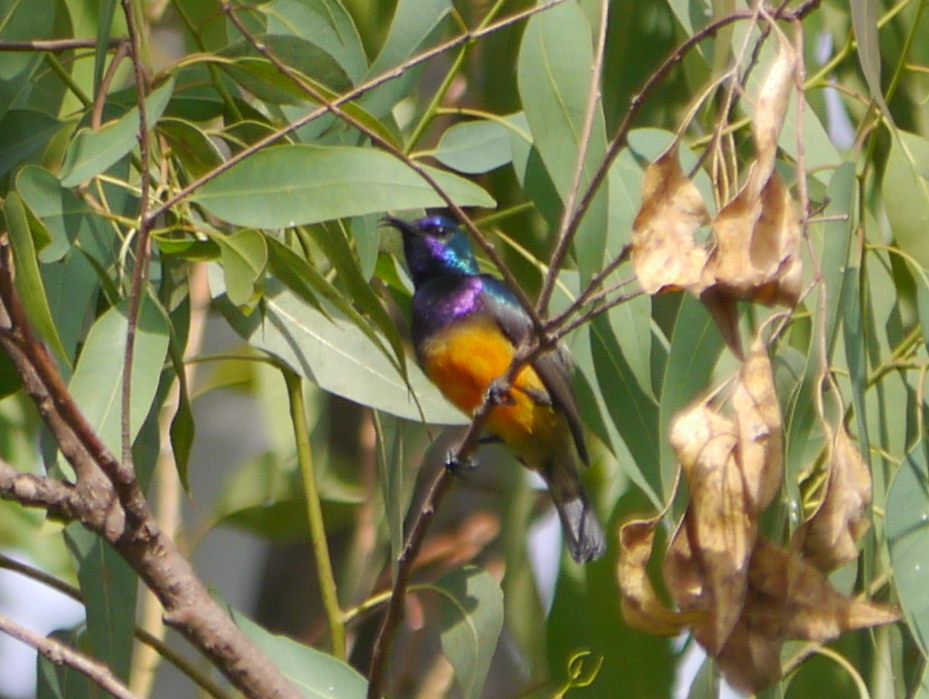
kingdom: Animalia
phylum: Chordata
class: Aves
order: Passeriformes
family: Nectariniidae
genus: Cinnyris
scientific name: Cinnyris venustus
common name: Variable sunbird
